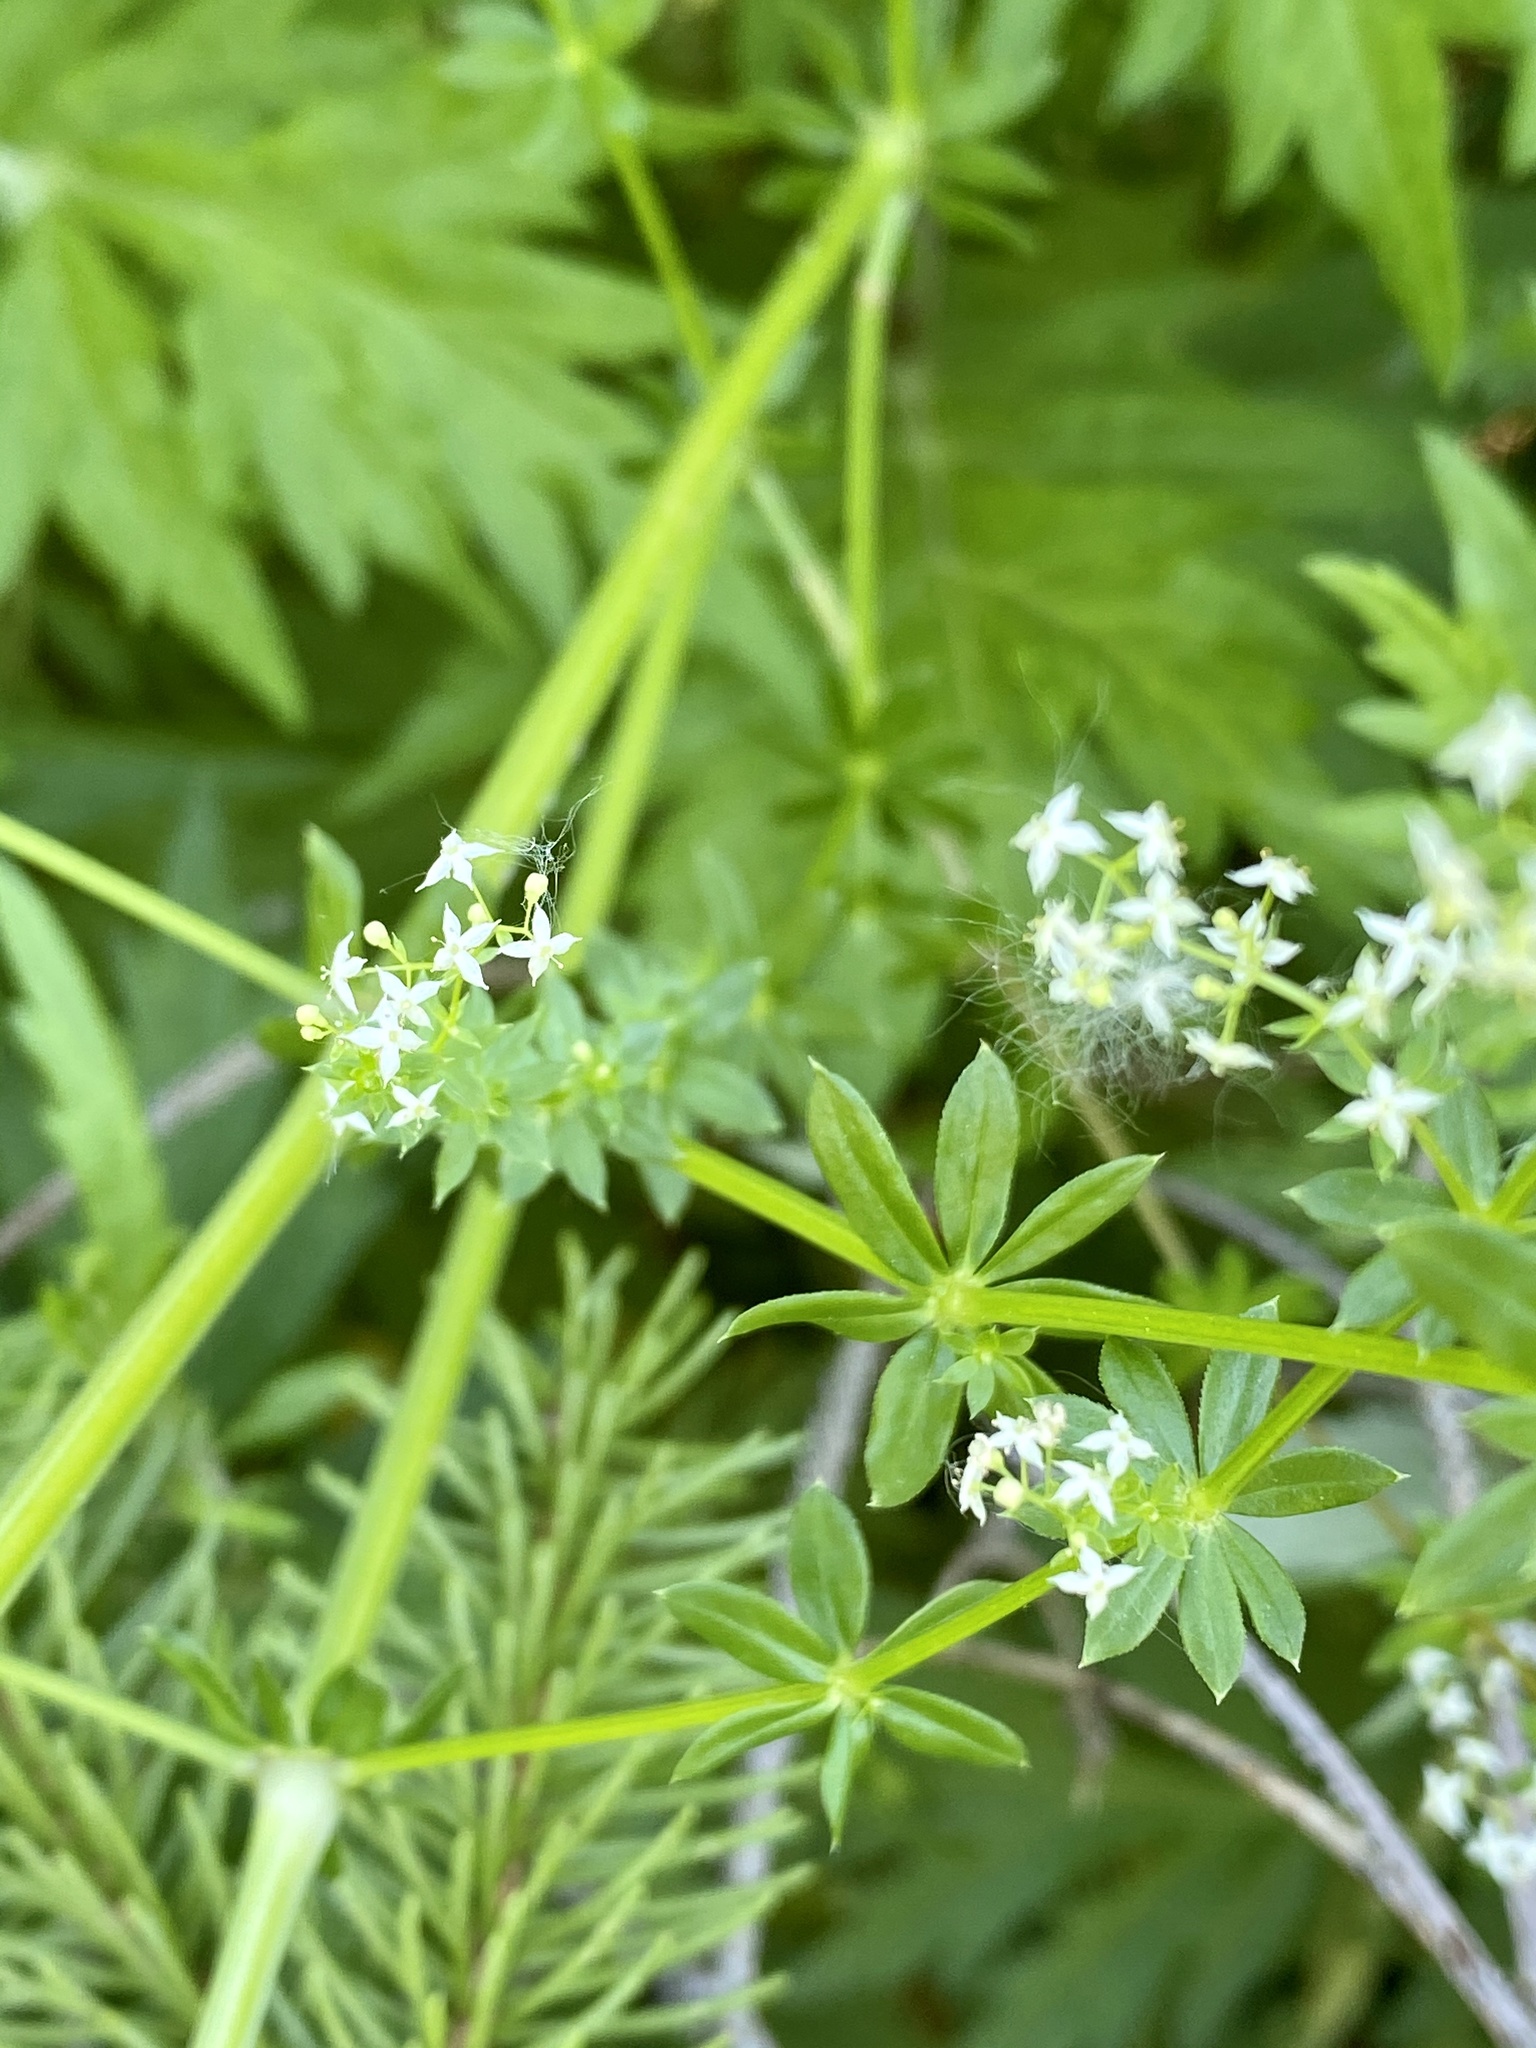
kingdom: Plantae
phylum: Tracheophyta
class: Magnoliopsida
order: Gentianales
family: Rubiaceae
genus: Galium
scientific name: Galium mollugo
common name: Hedge bedstraw
